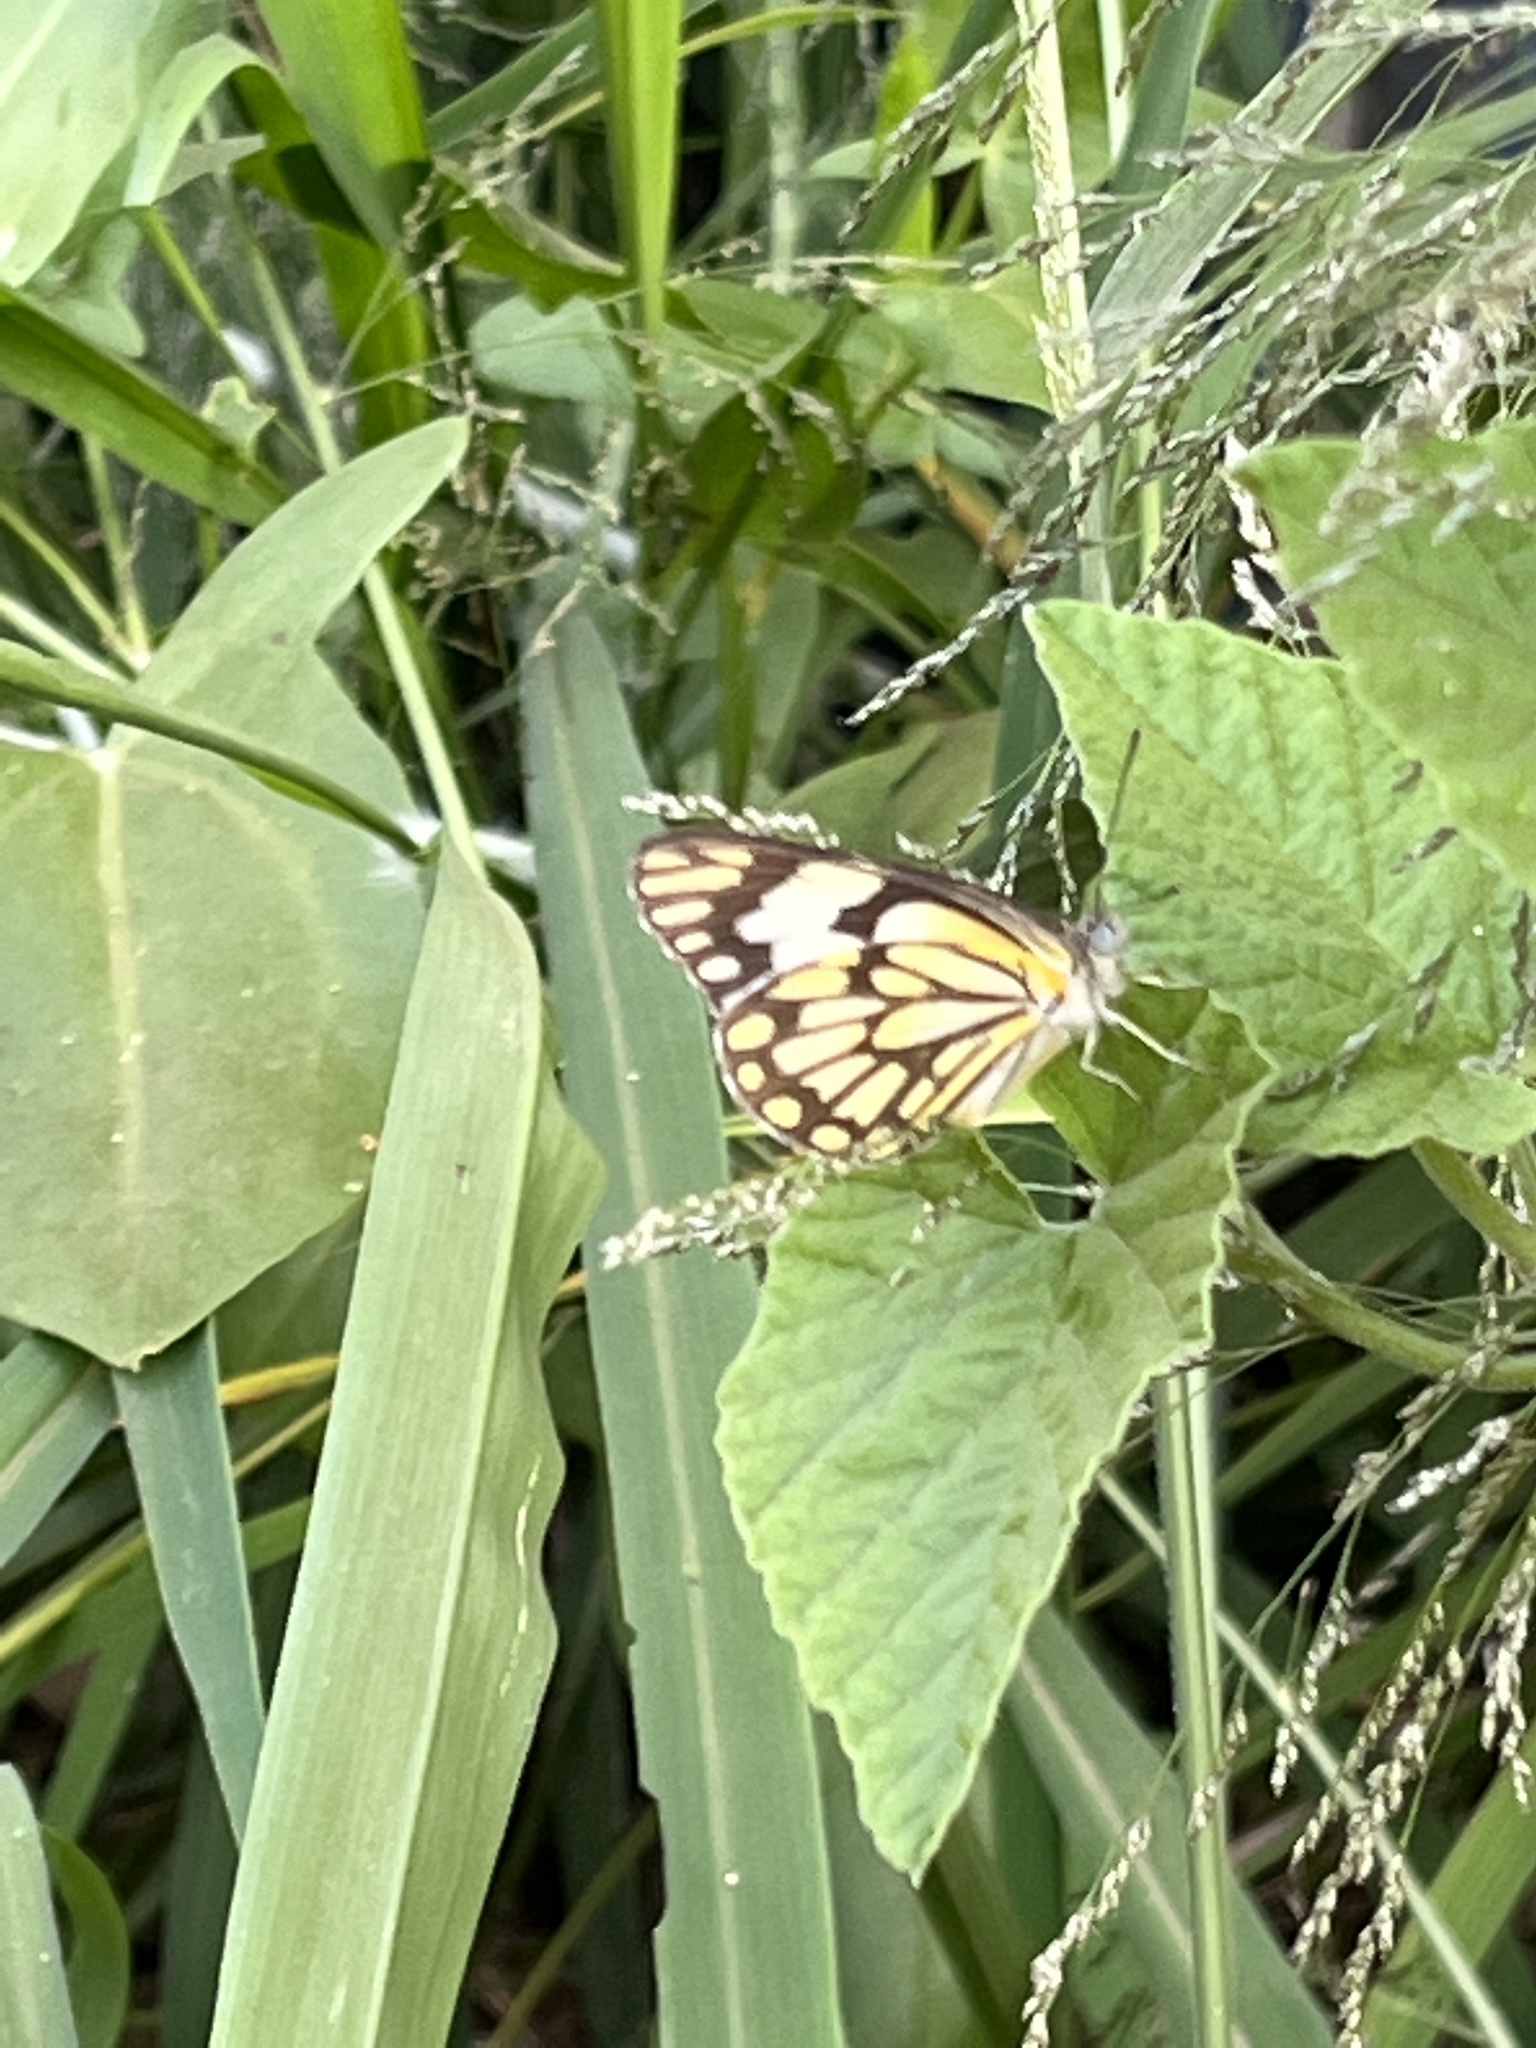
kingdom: Animalia
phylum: Arthropoda
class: Insecta
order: Lepidoptera
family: Pieridae
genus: Belenois
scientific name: Belenois aurota
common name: Brown-veined white
